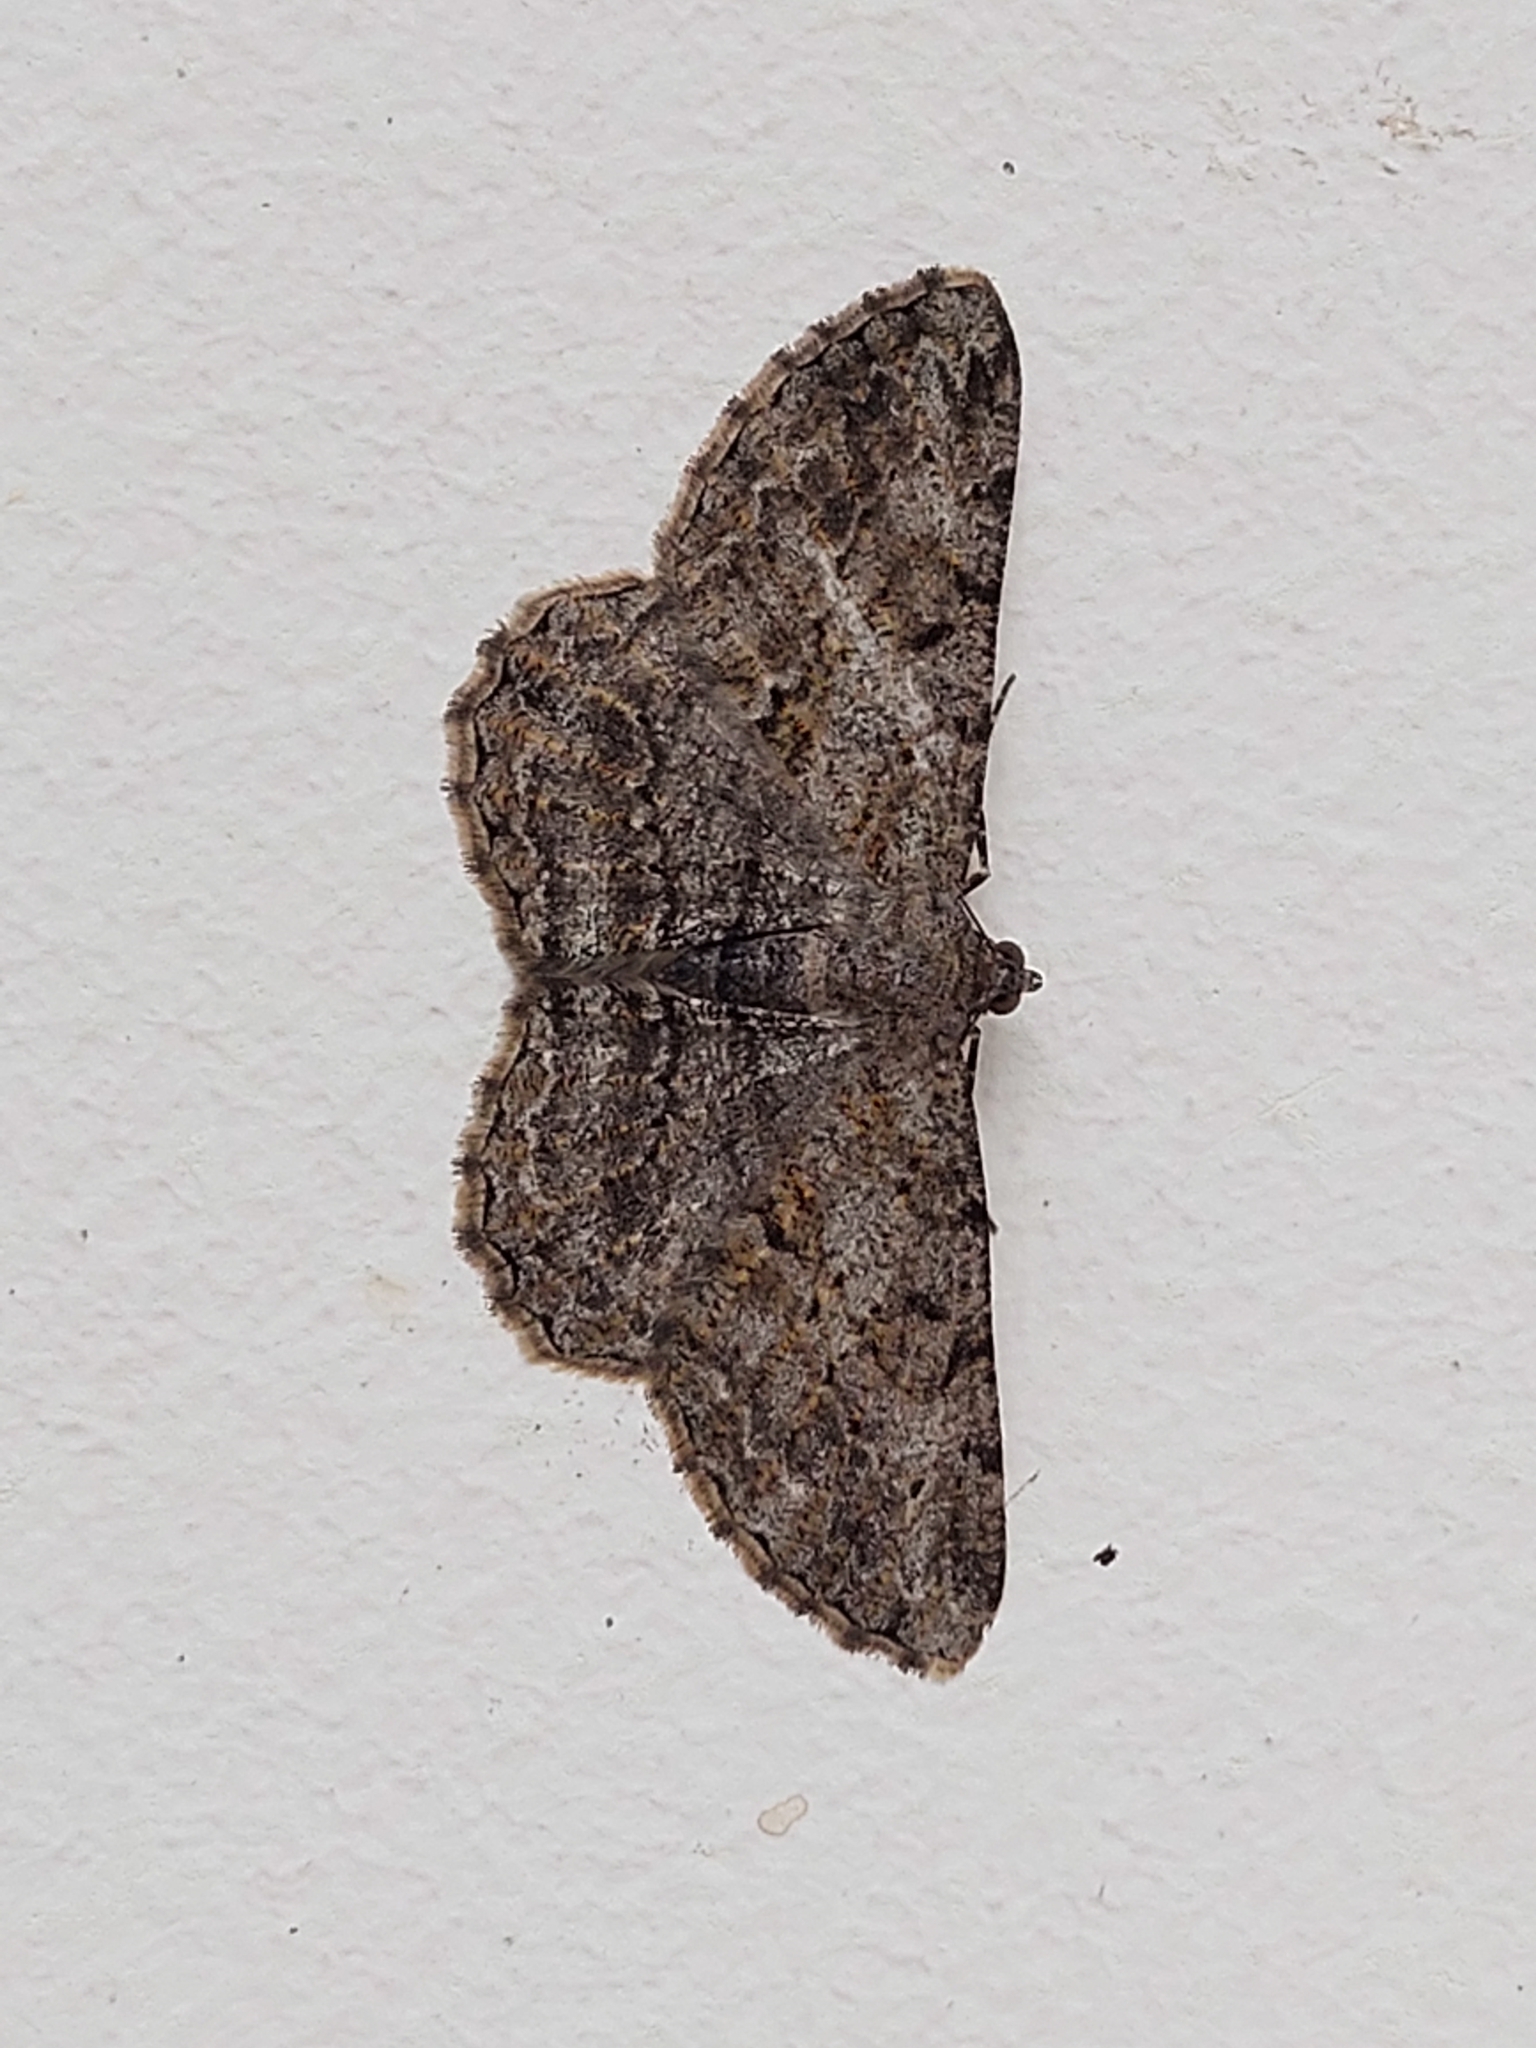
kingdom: Animalia
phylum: Arthropoda
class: Insecta
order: Lepidoptera
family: Geometridae
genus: Peribatodes
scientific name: Peribatodes rhomboidaria
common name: Willow beauty
